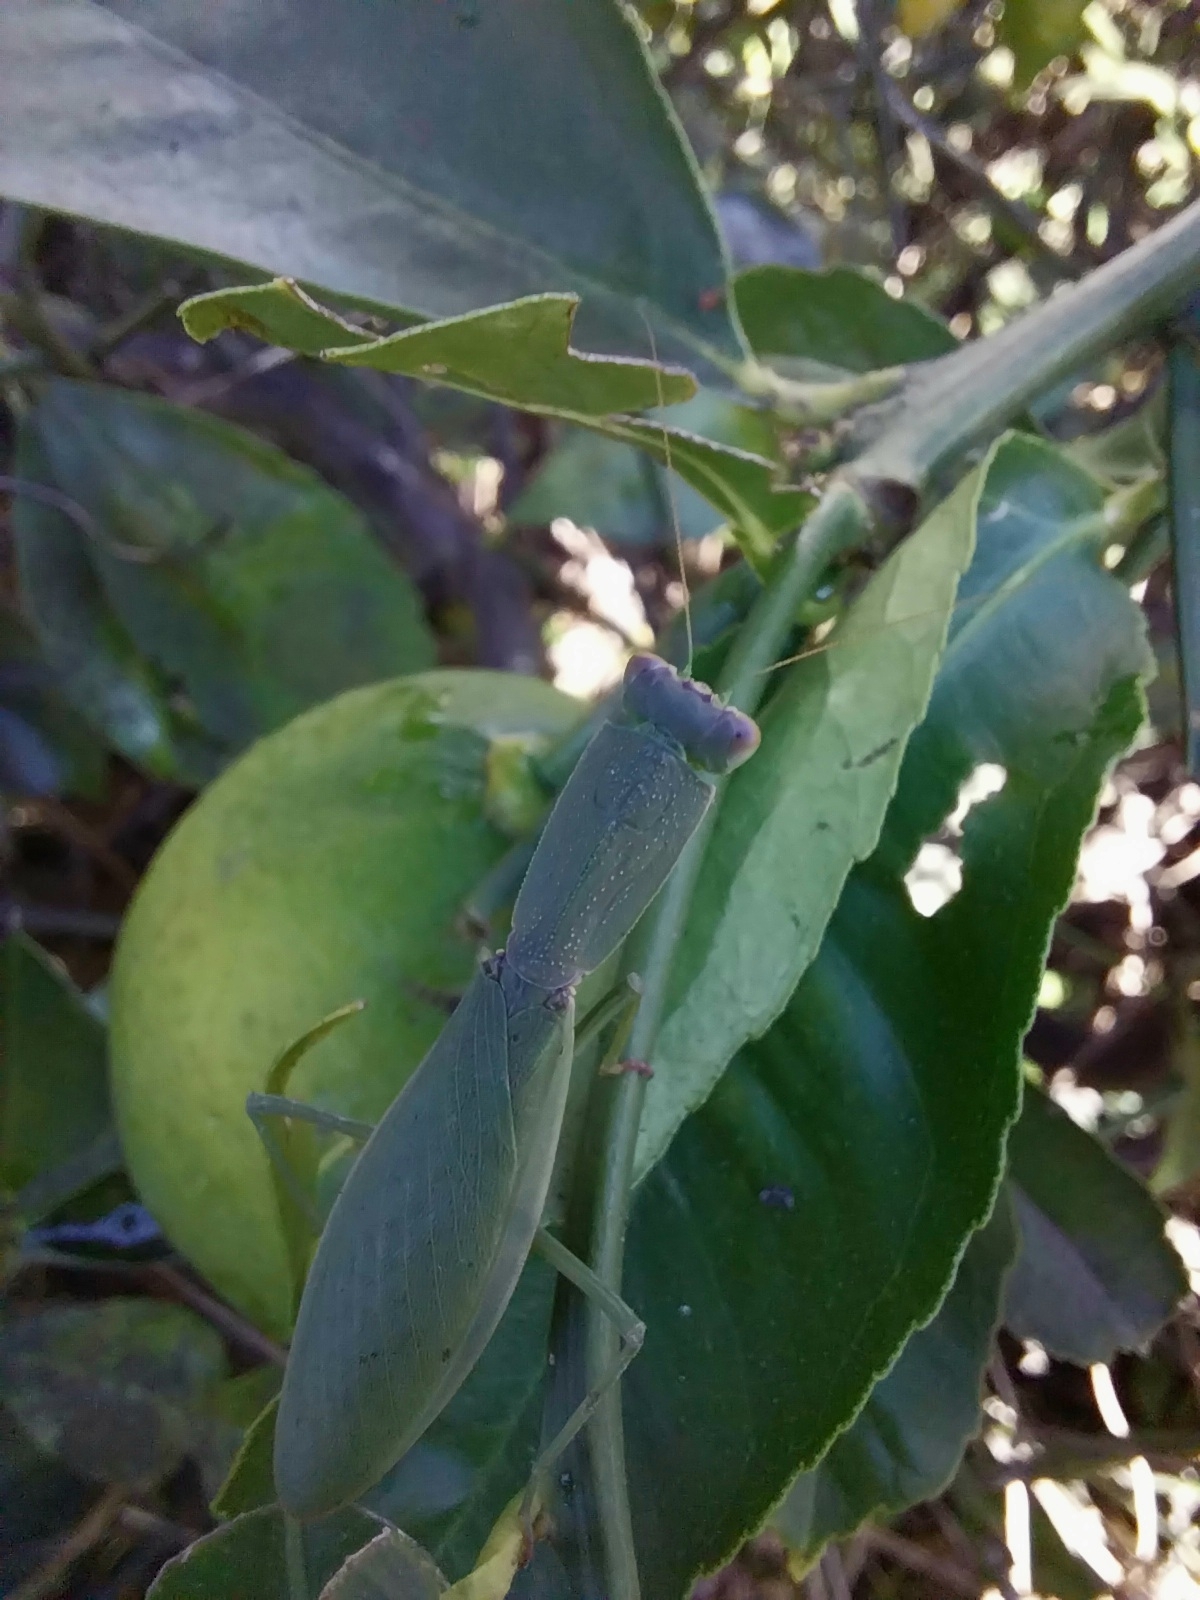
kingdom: Animalia
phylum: Arthropoda
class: Insecta
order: Mantodea
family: Mantidae
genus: Orthodera
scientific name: Orthodera novaezealandiae
